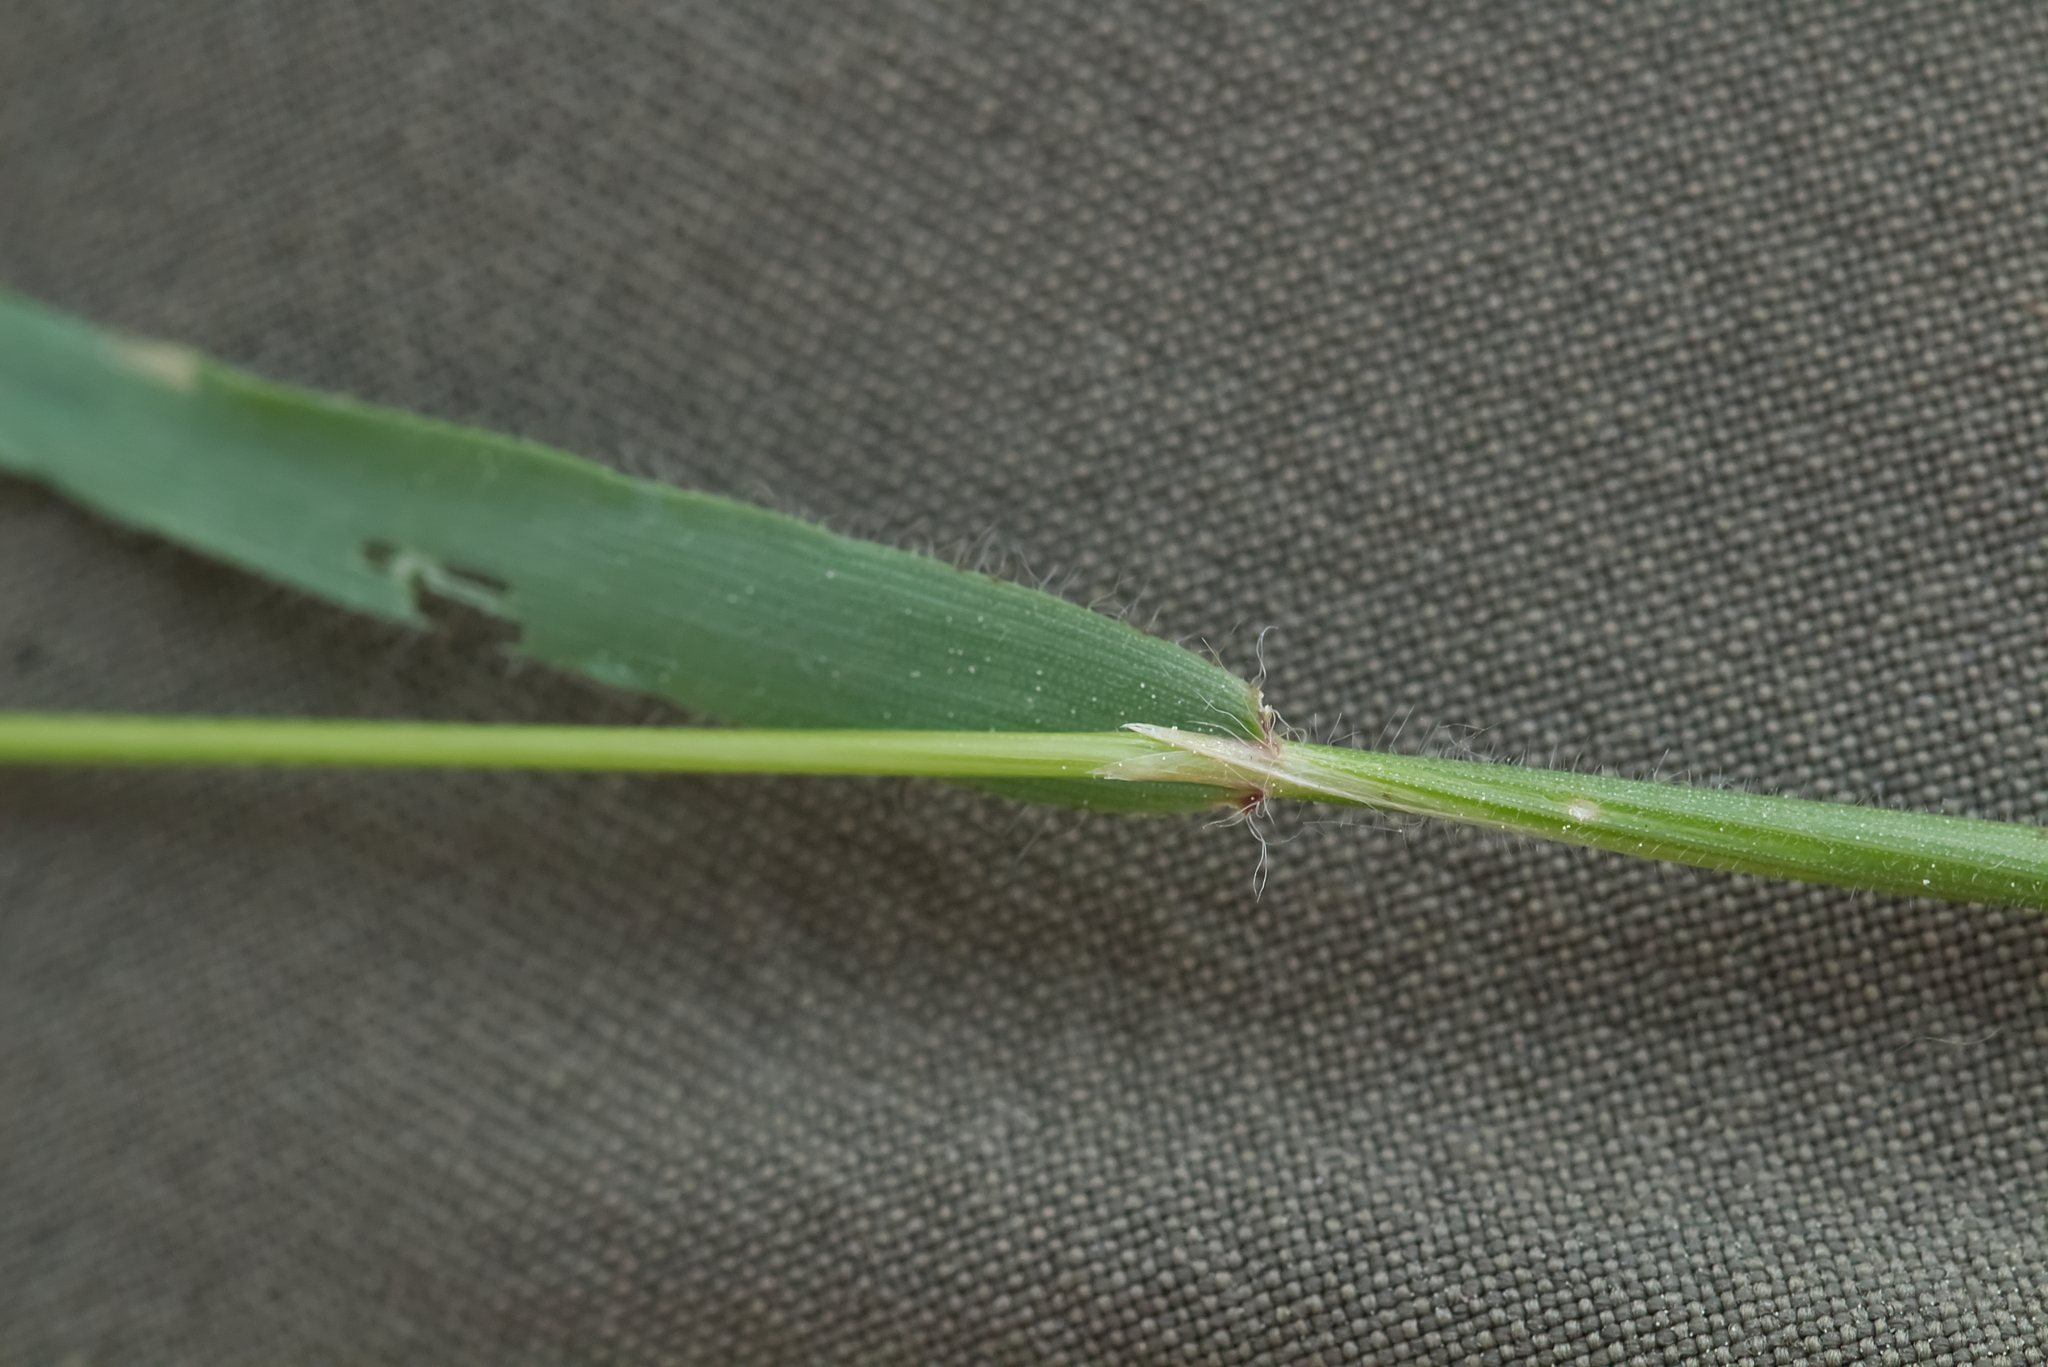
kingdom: Plantae
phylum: Tracheophyta
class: Liliopsida
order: Poales
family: Poaceae
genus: Anthoxanthum
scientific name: Anthoxanthum odoratum
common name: Sweet vernalgrass
